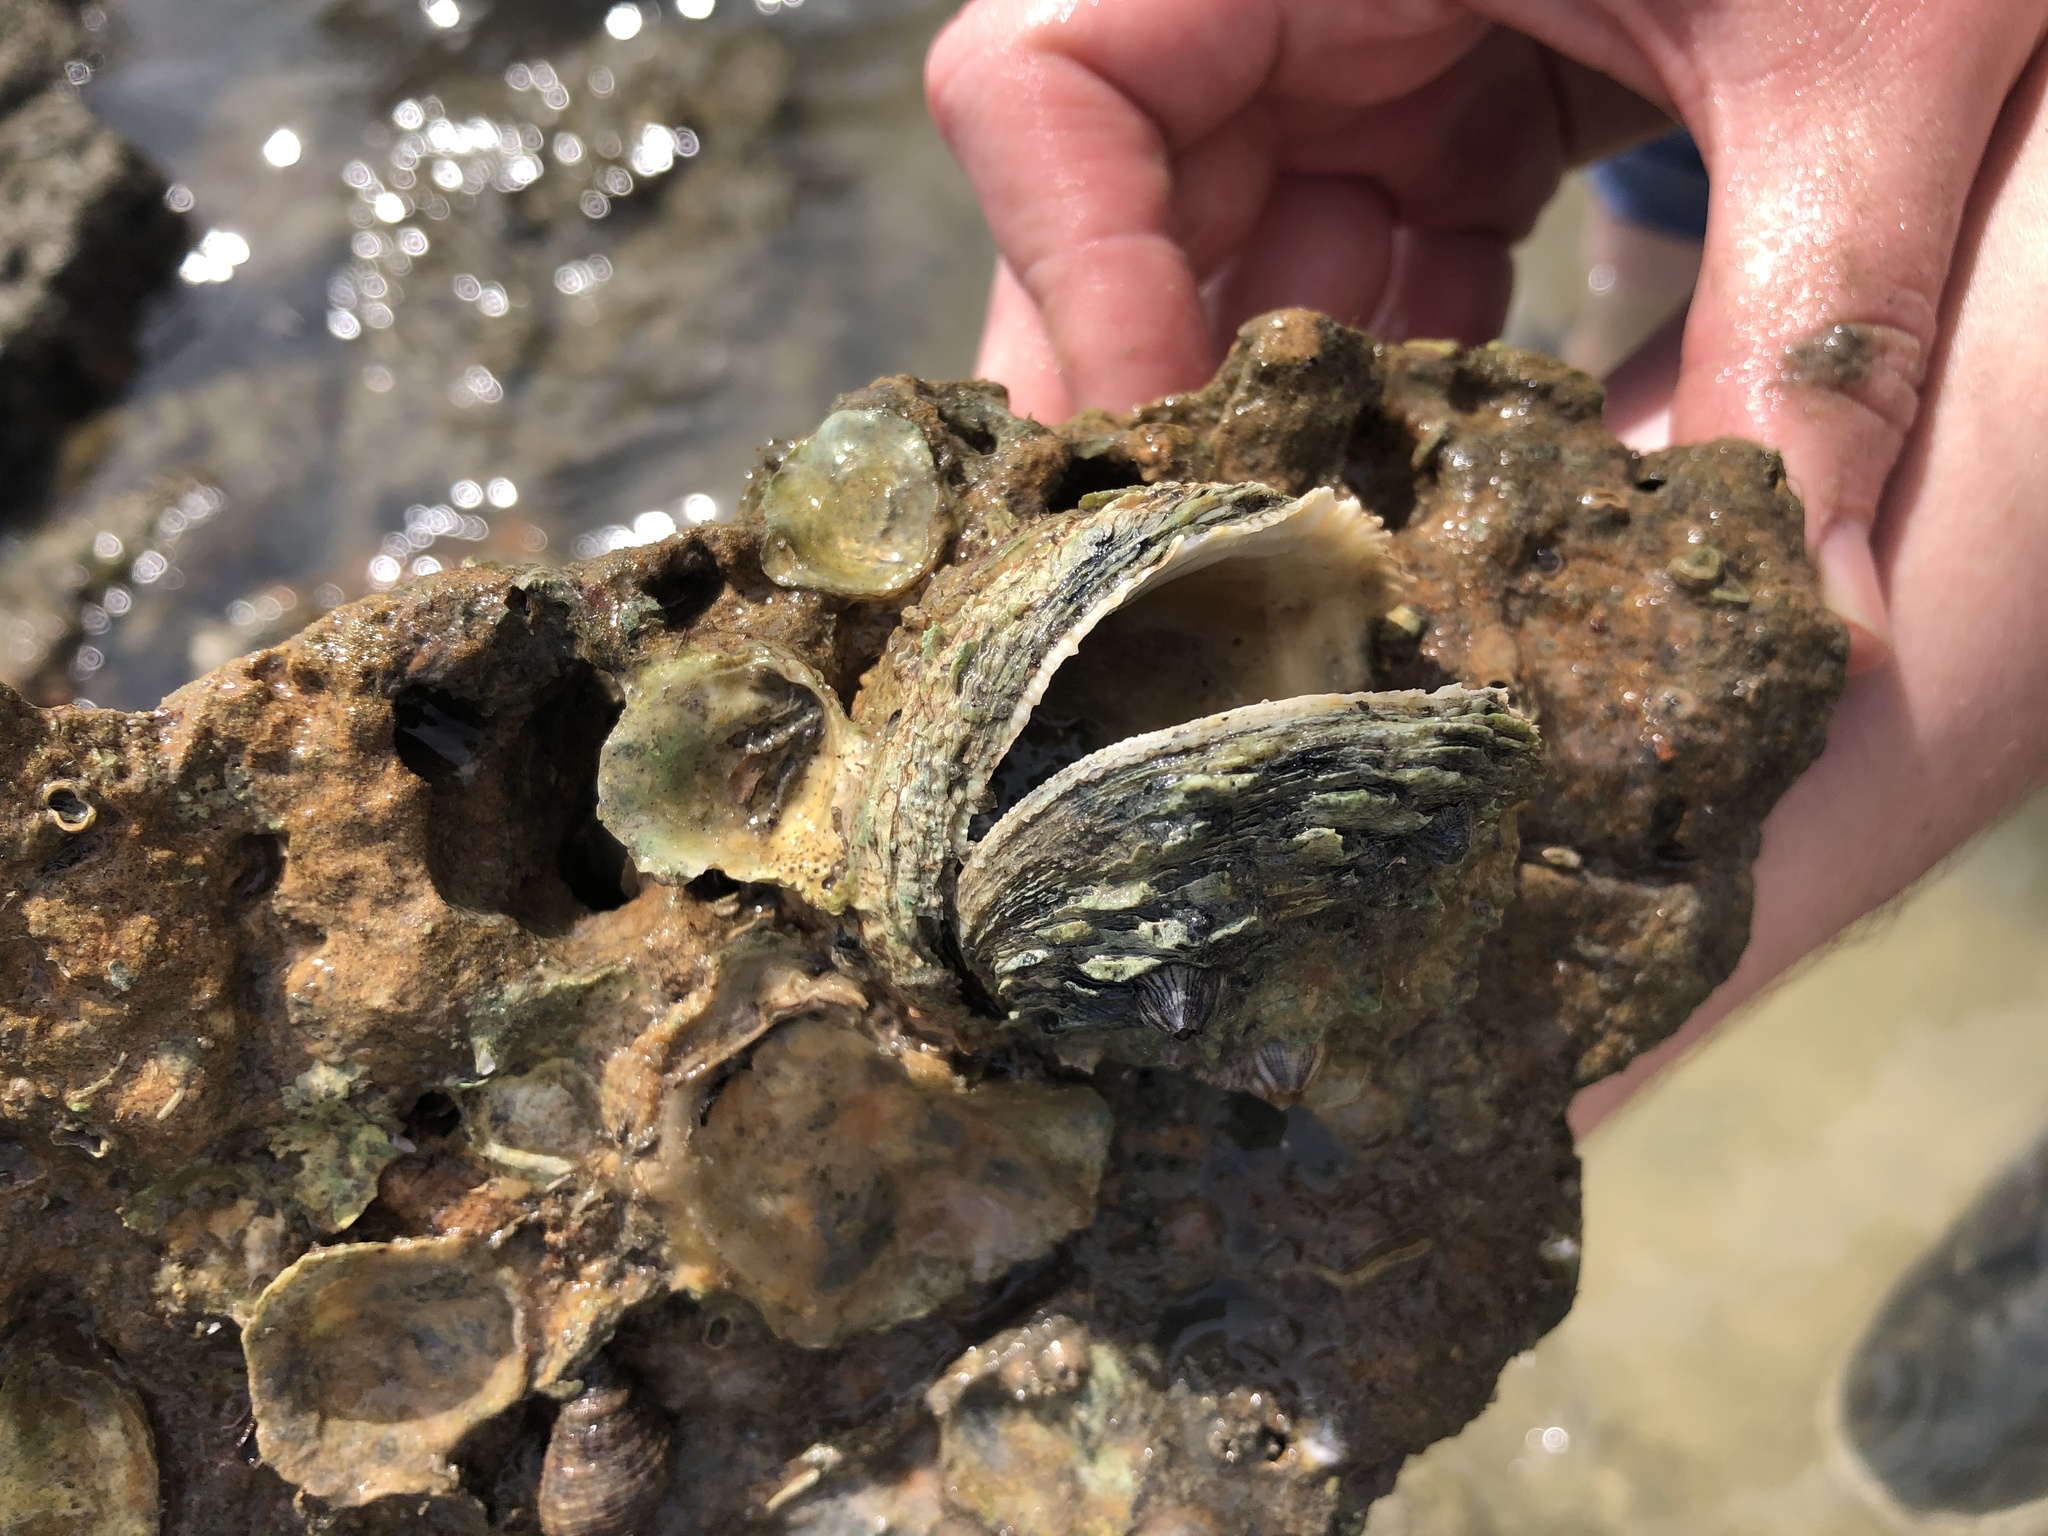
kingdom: Animalia
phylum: Mollusca
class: Bivalvia
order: Venerida
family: Chamidae
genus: Pseudochama
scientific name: Pseudochama cristella
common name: Atlantic jewelbox
